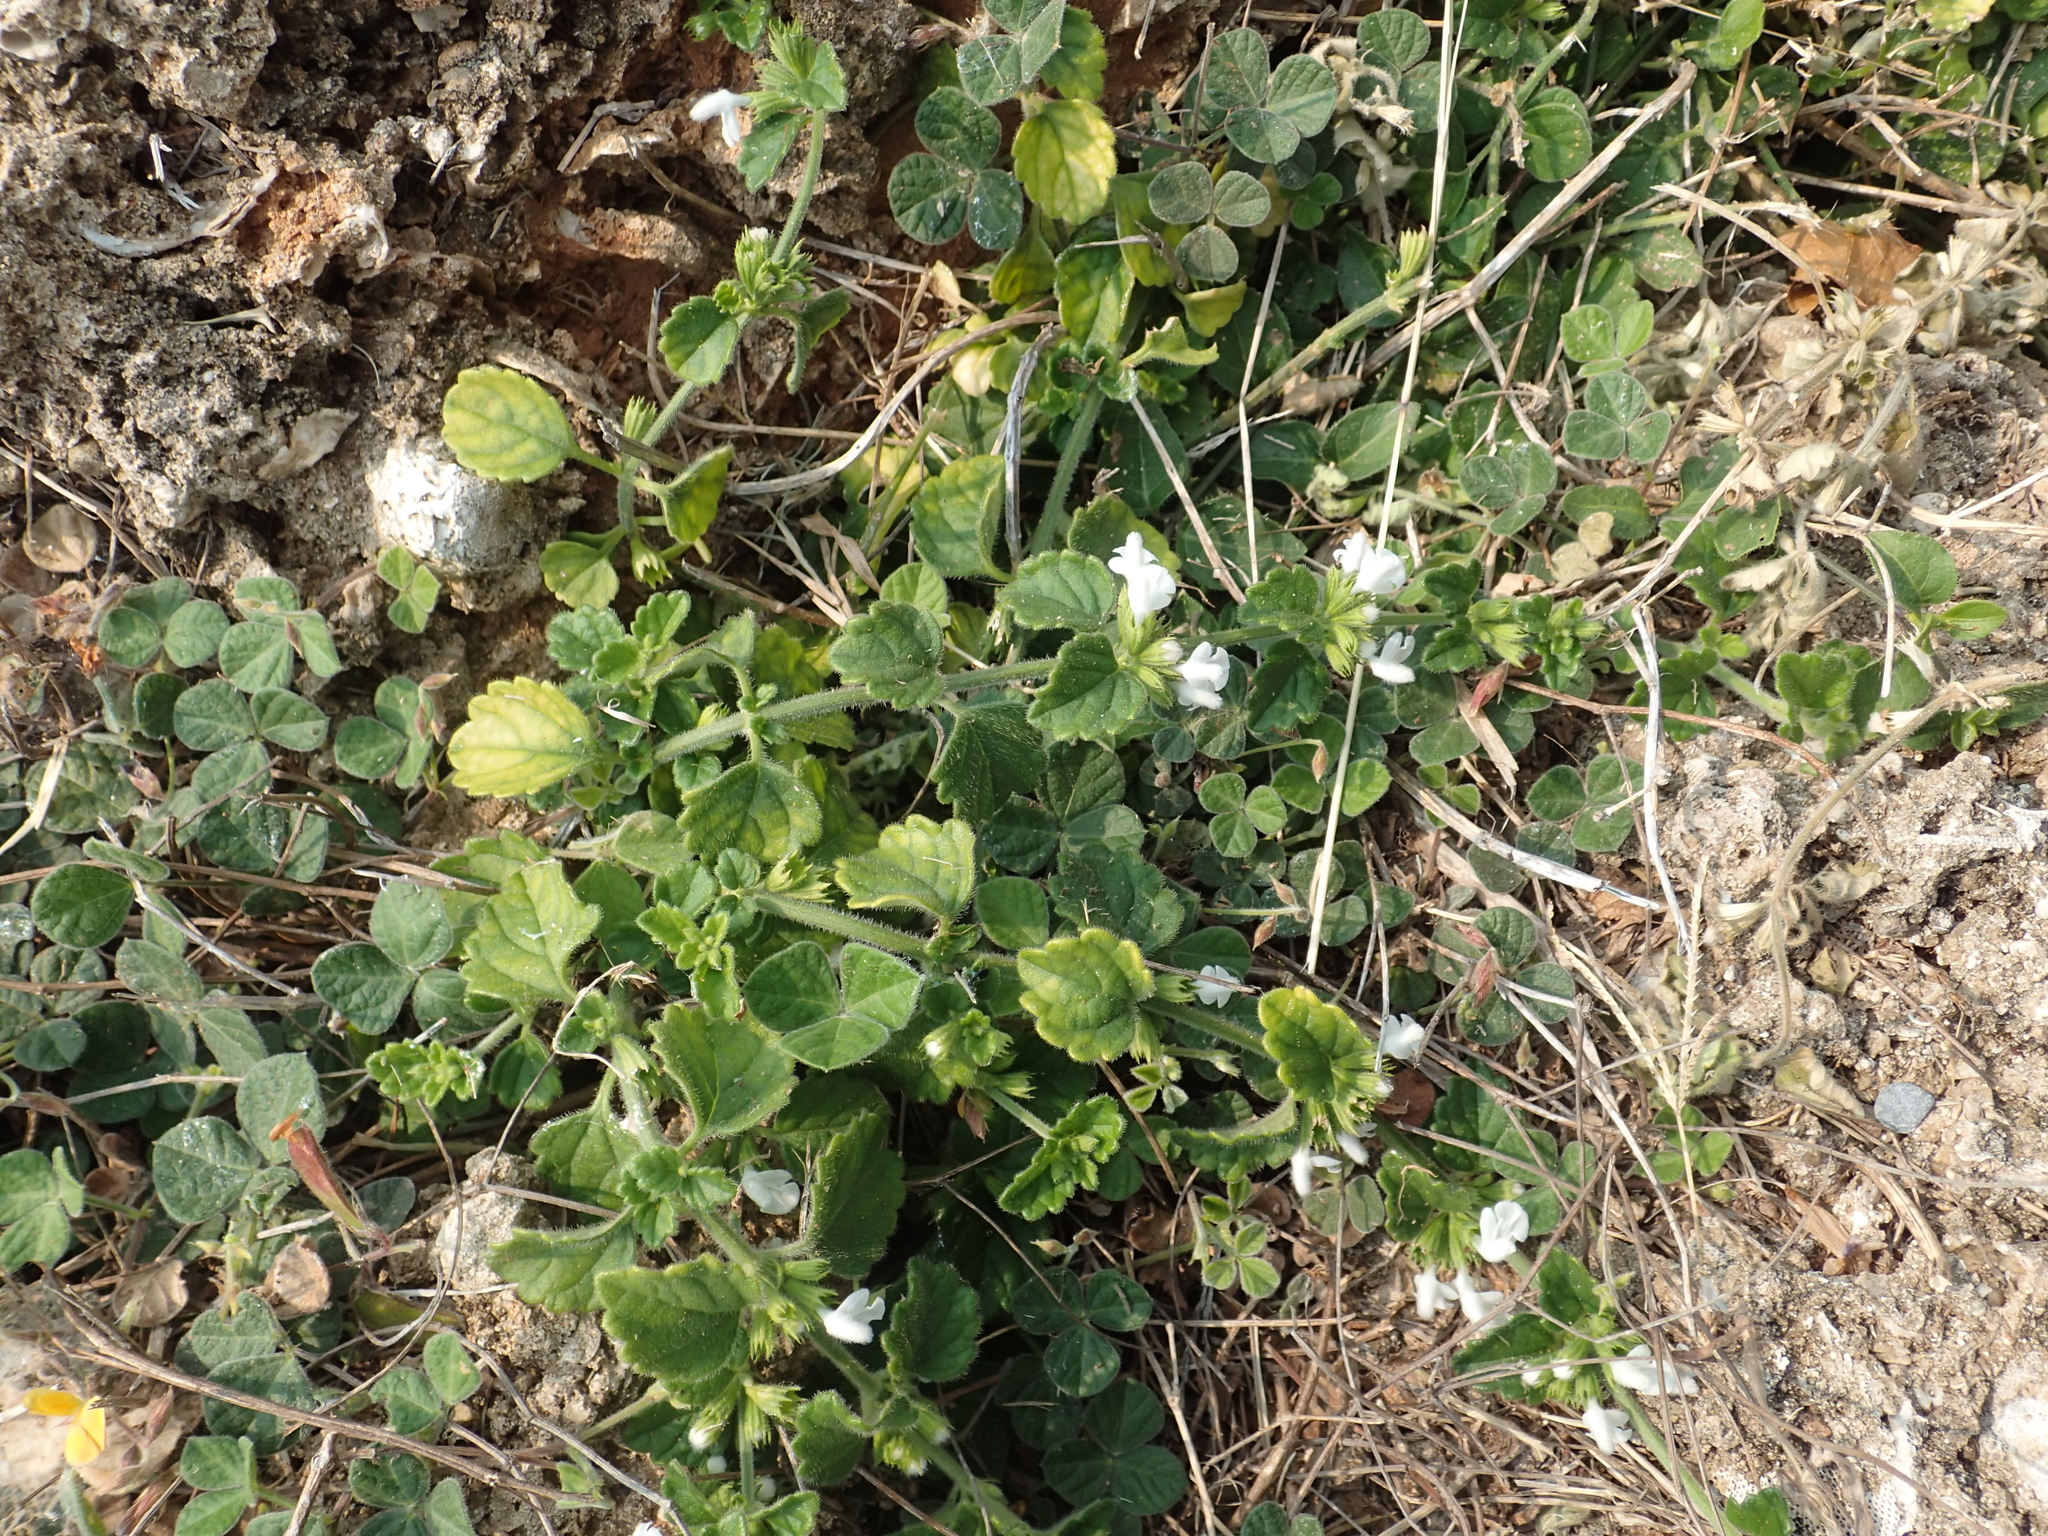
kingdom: Plantae
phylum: Tracheophyta
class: Magnoliopsida
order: Lamiales
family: Lamiaceae
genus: Leucas
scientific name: Leucas chinensis
